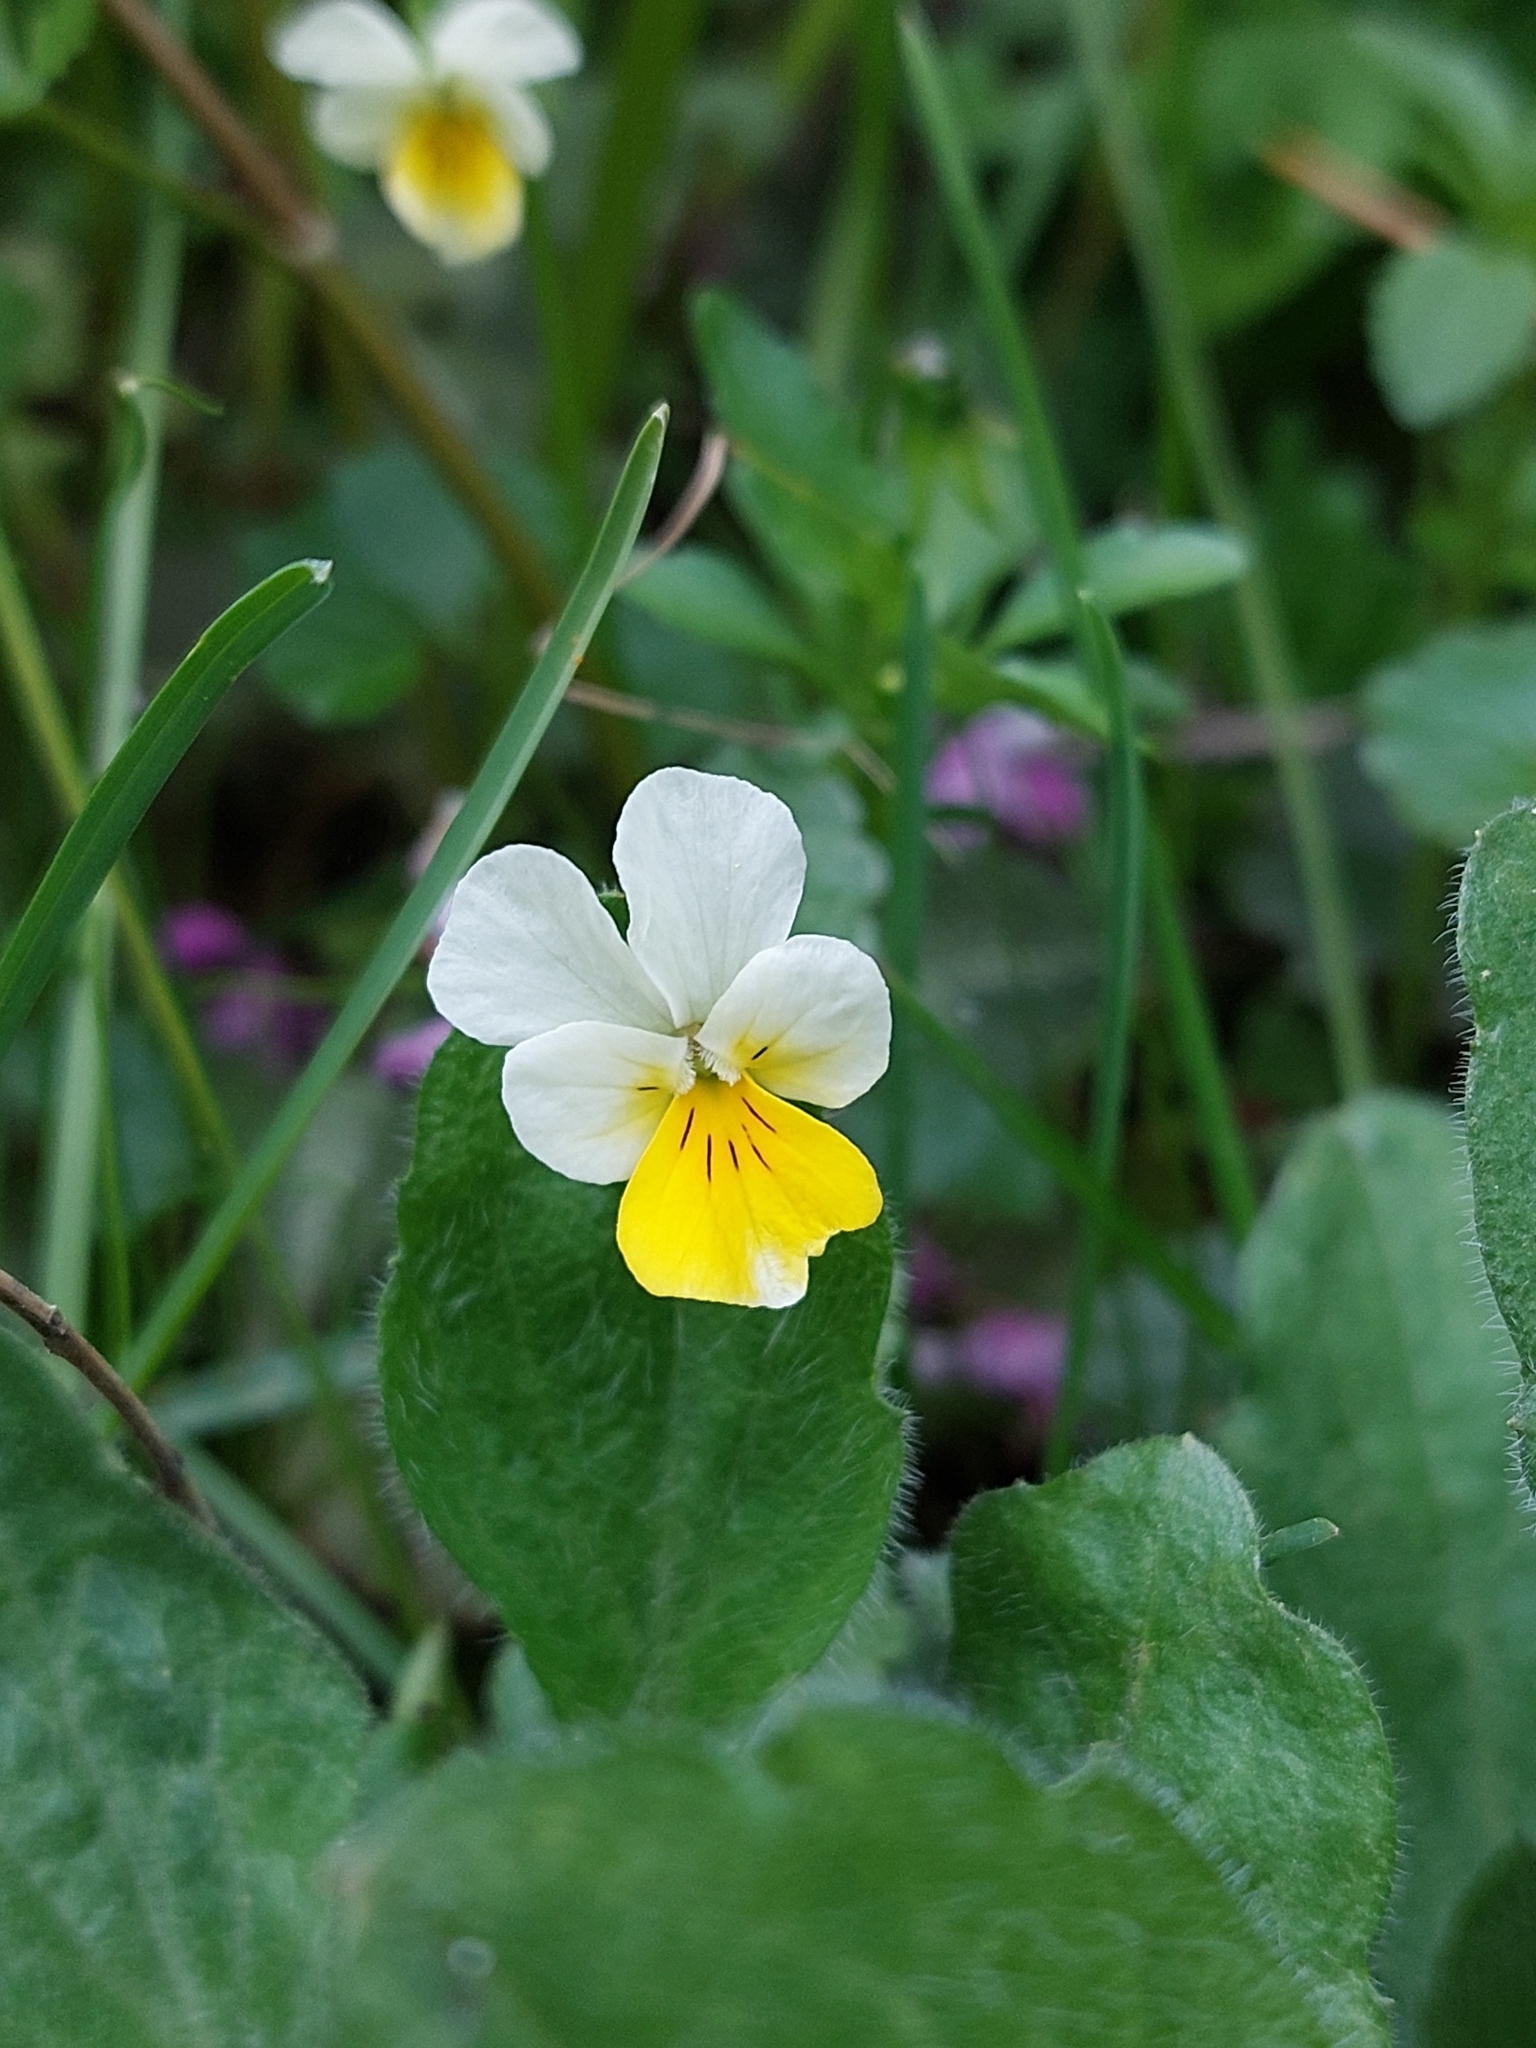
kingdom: Plantae
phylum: Tracheophyta
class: Magnoliopsida
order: Malpighiales
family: Violaceae
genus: Viola
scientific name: Viola arvensis
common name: Field pansy
